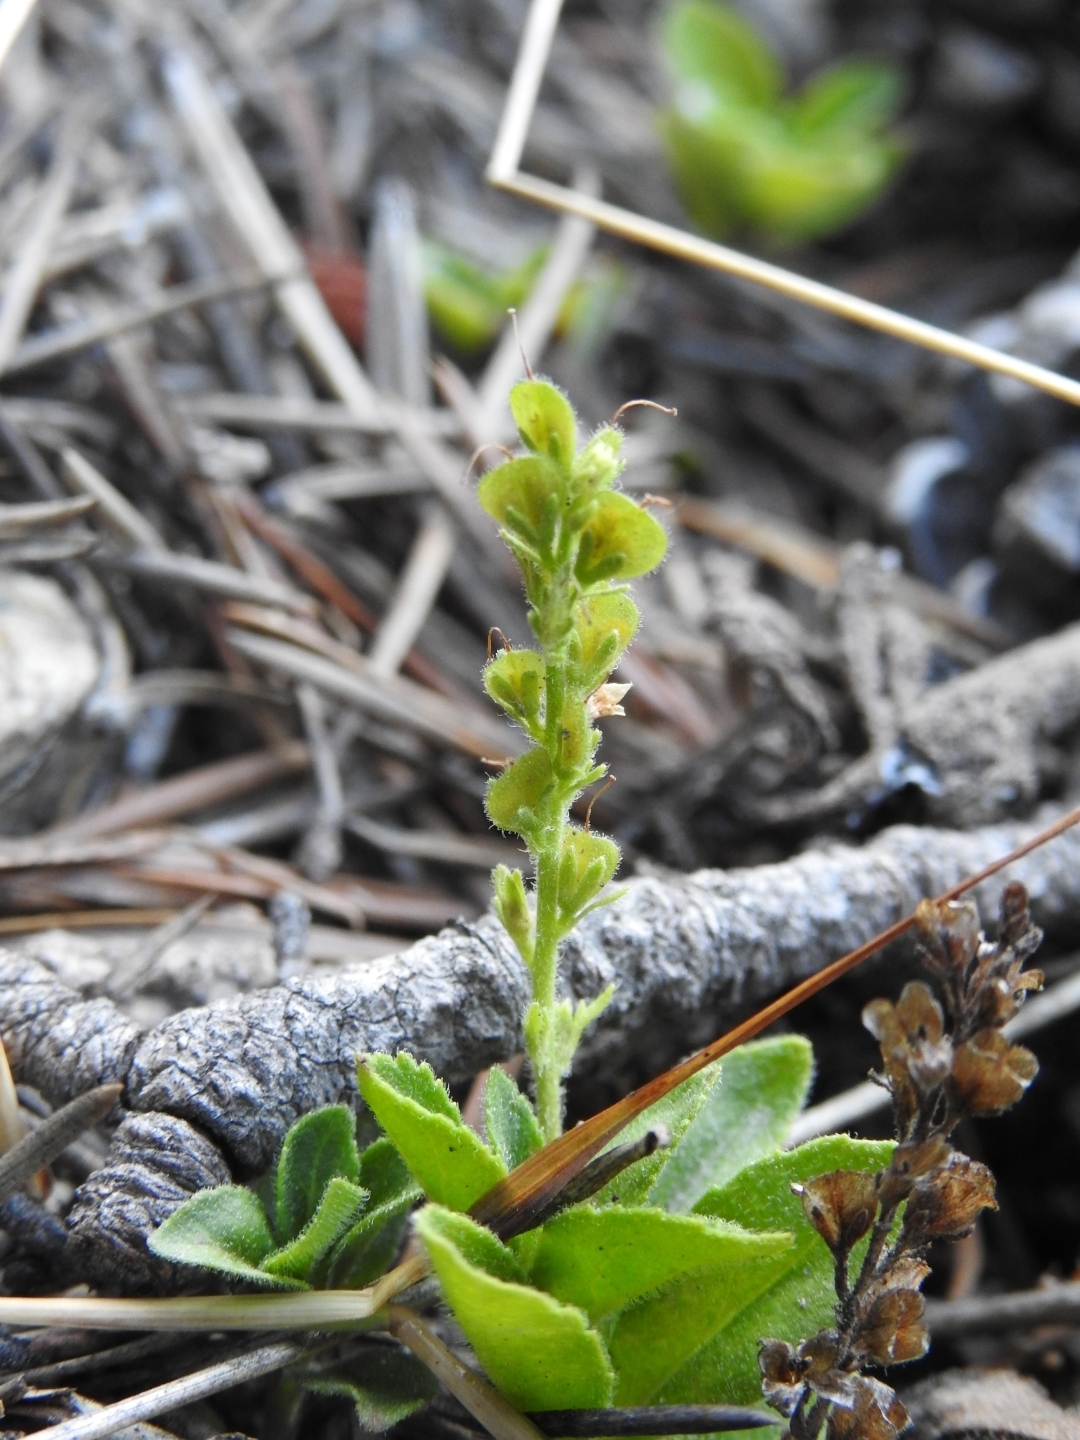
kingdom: Plantae
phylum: Tracheophyta
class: Magnoliopsida
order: Lamiales
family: Plantaginaceae
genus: Veronica
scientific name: Veronica officinalis
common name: Common speedwell
